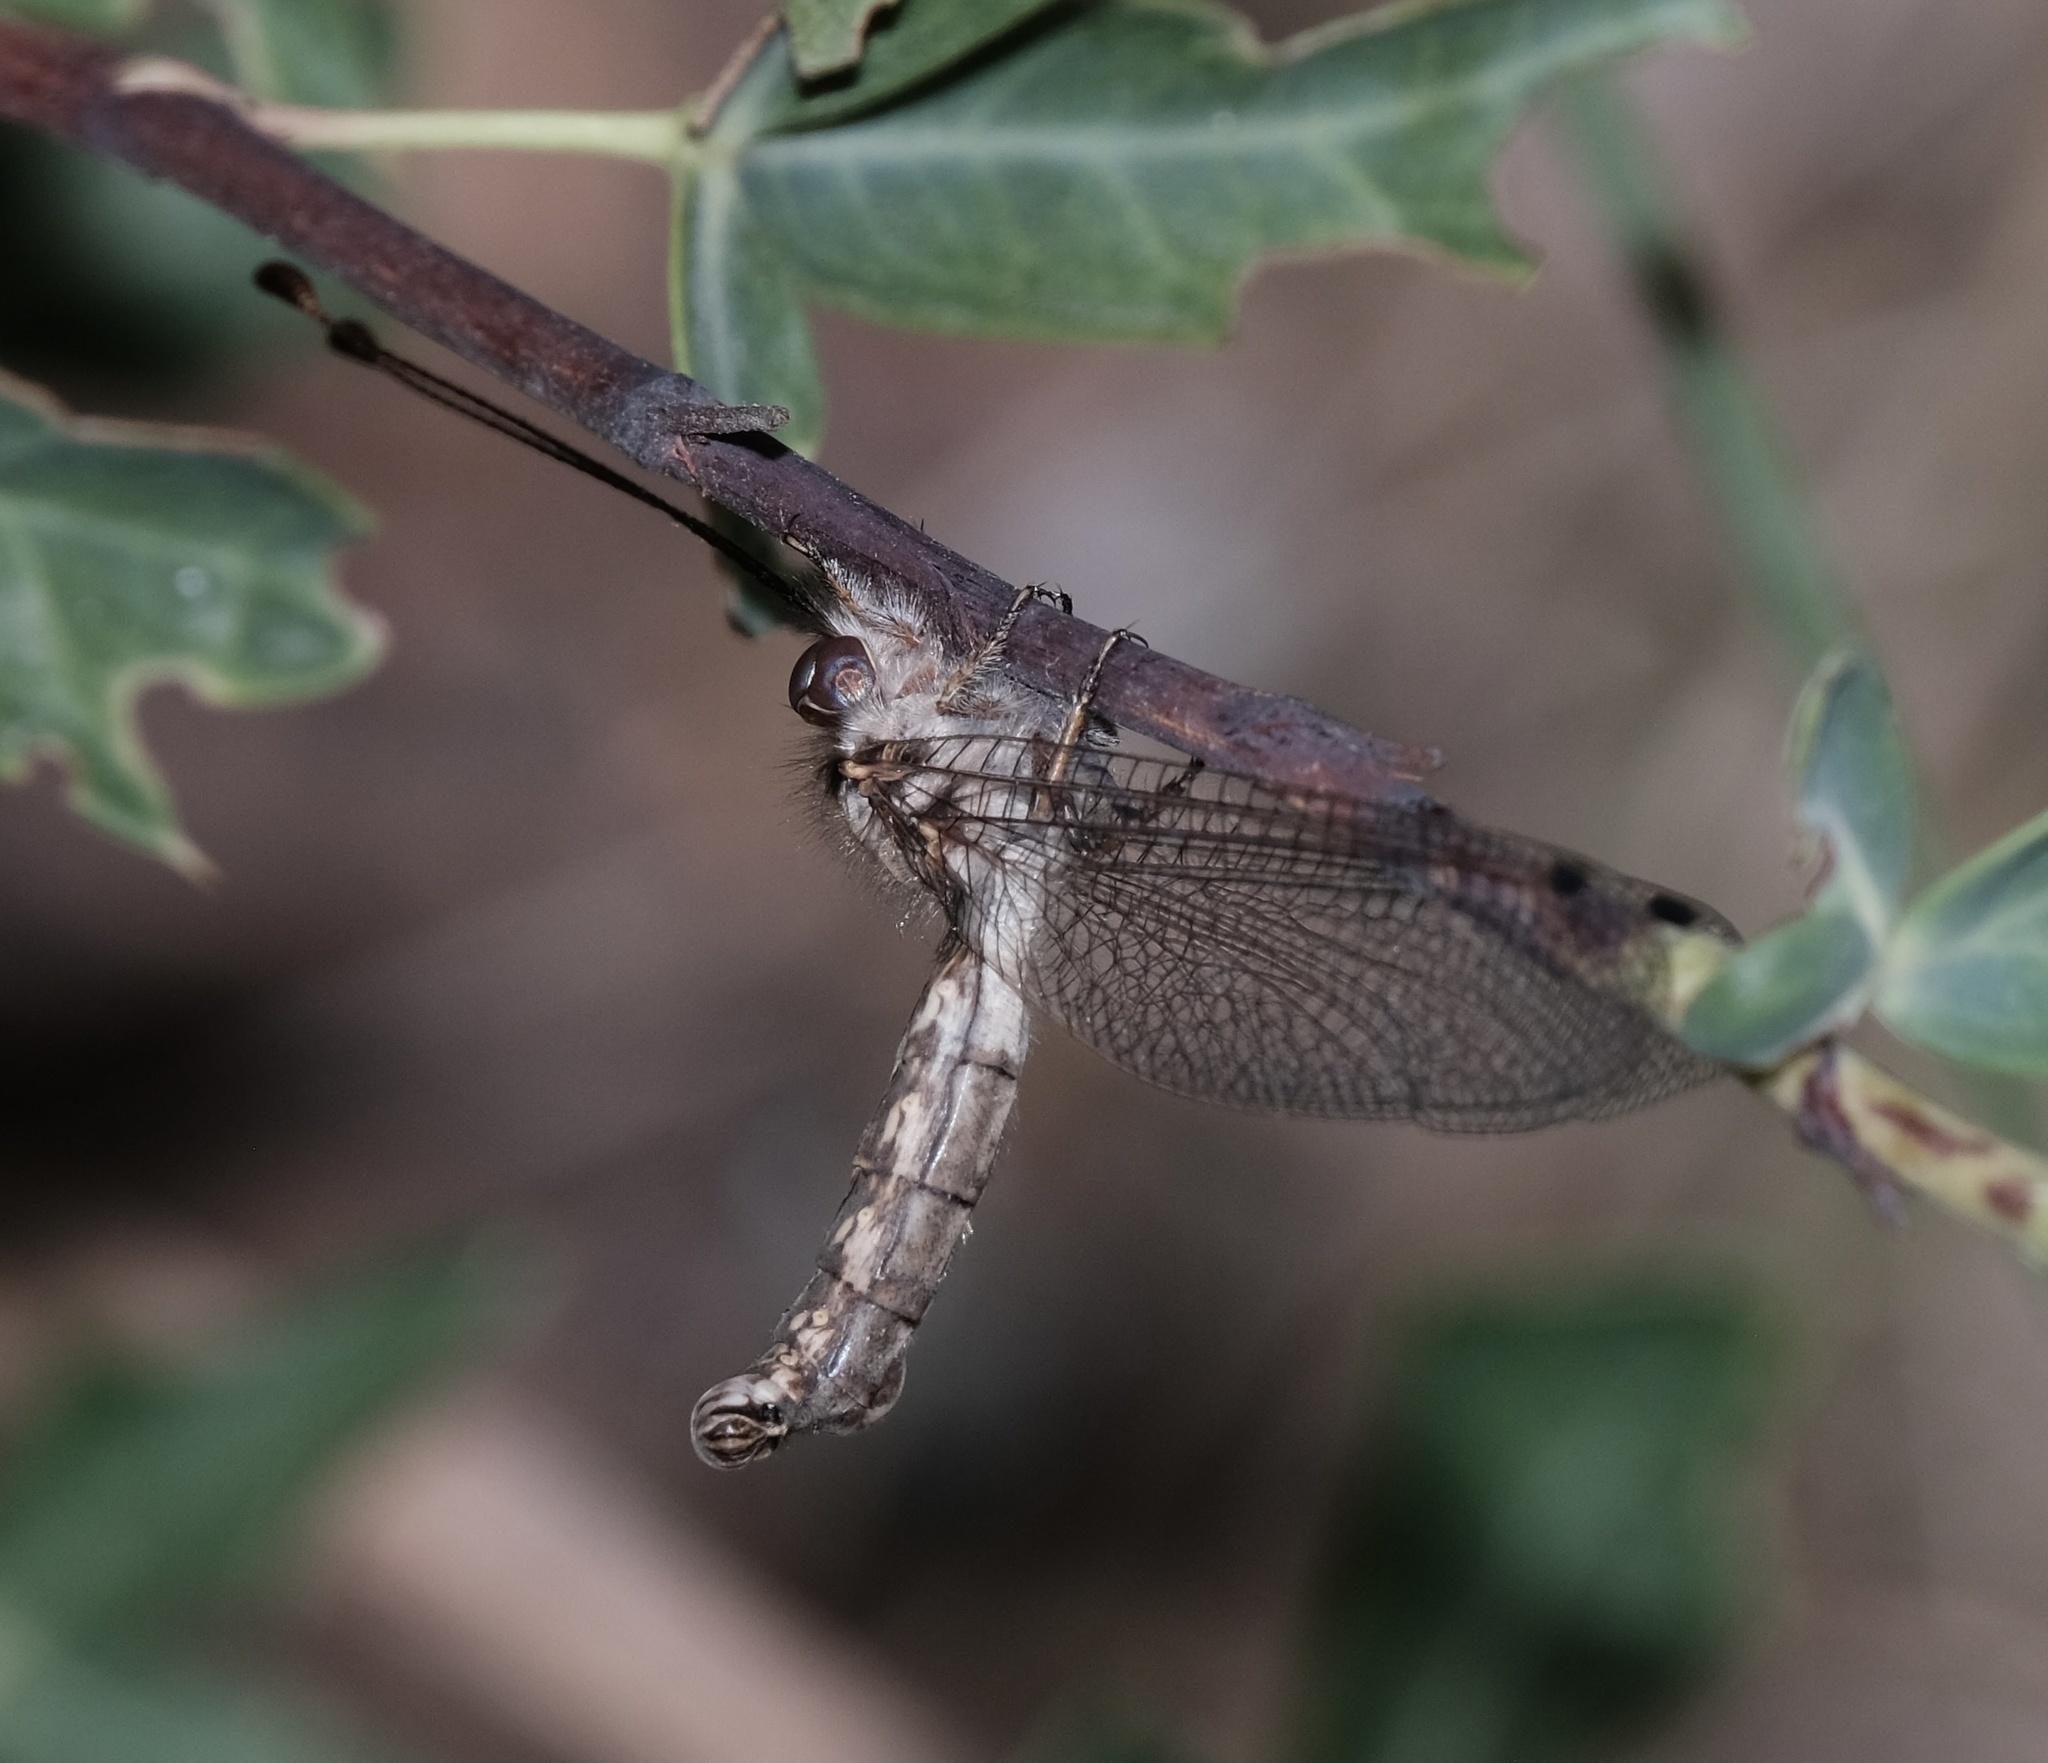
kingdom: Animalia
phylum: Arthropoda
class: Insecta
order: Neuroptera
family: Ascalaphidae
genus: Ululodes
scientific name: Ululodes macleayanus
